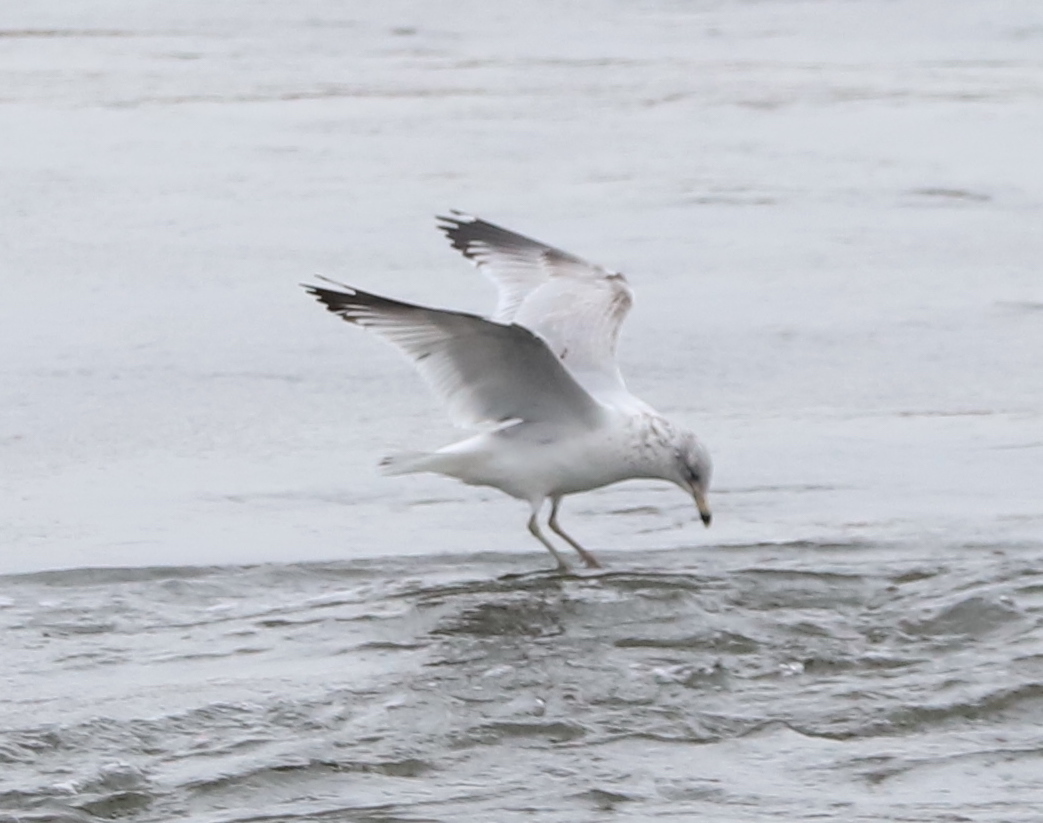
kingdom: Animalia
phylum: Chordata
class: Aves
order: Charadriiformes
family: Laridae
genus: Larus
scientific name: Larus delawarensis
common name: Ring-billed gull
